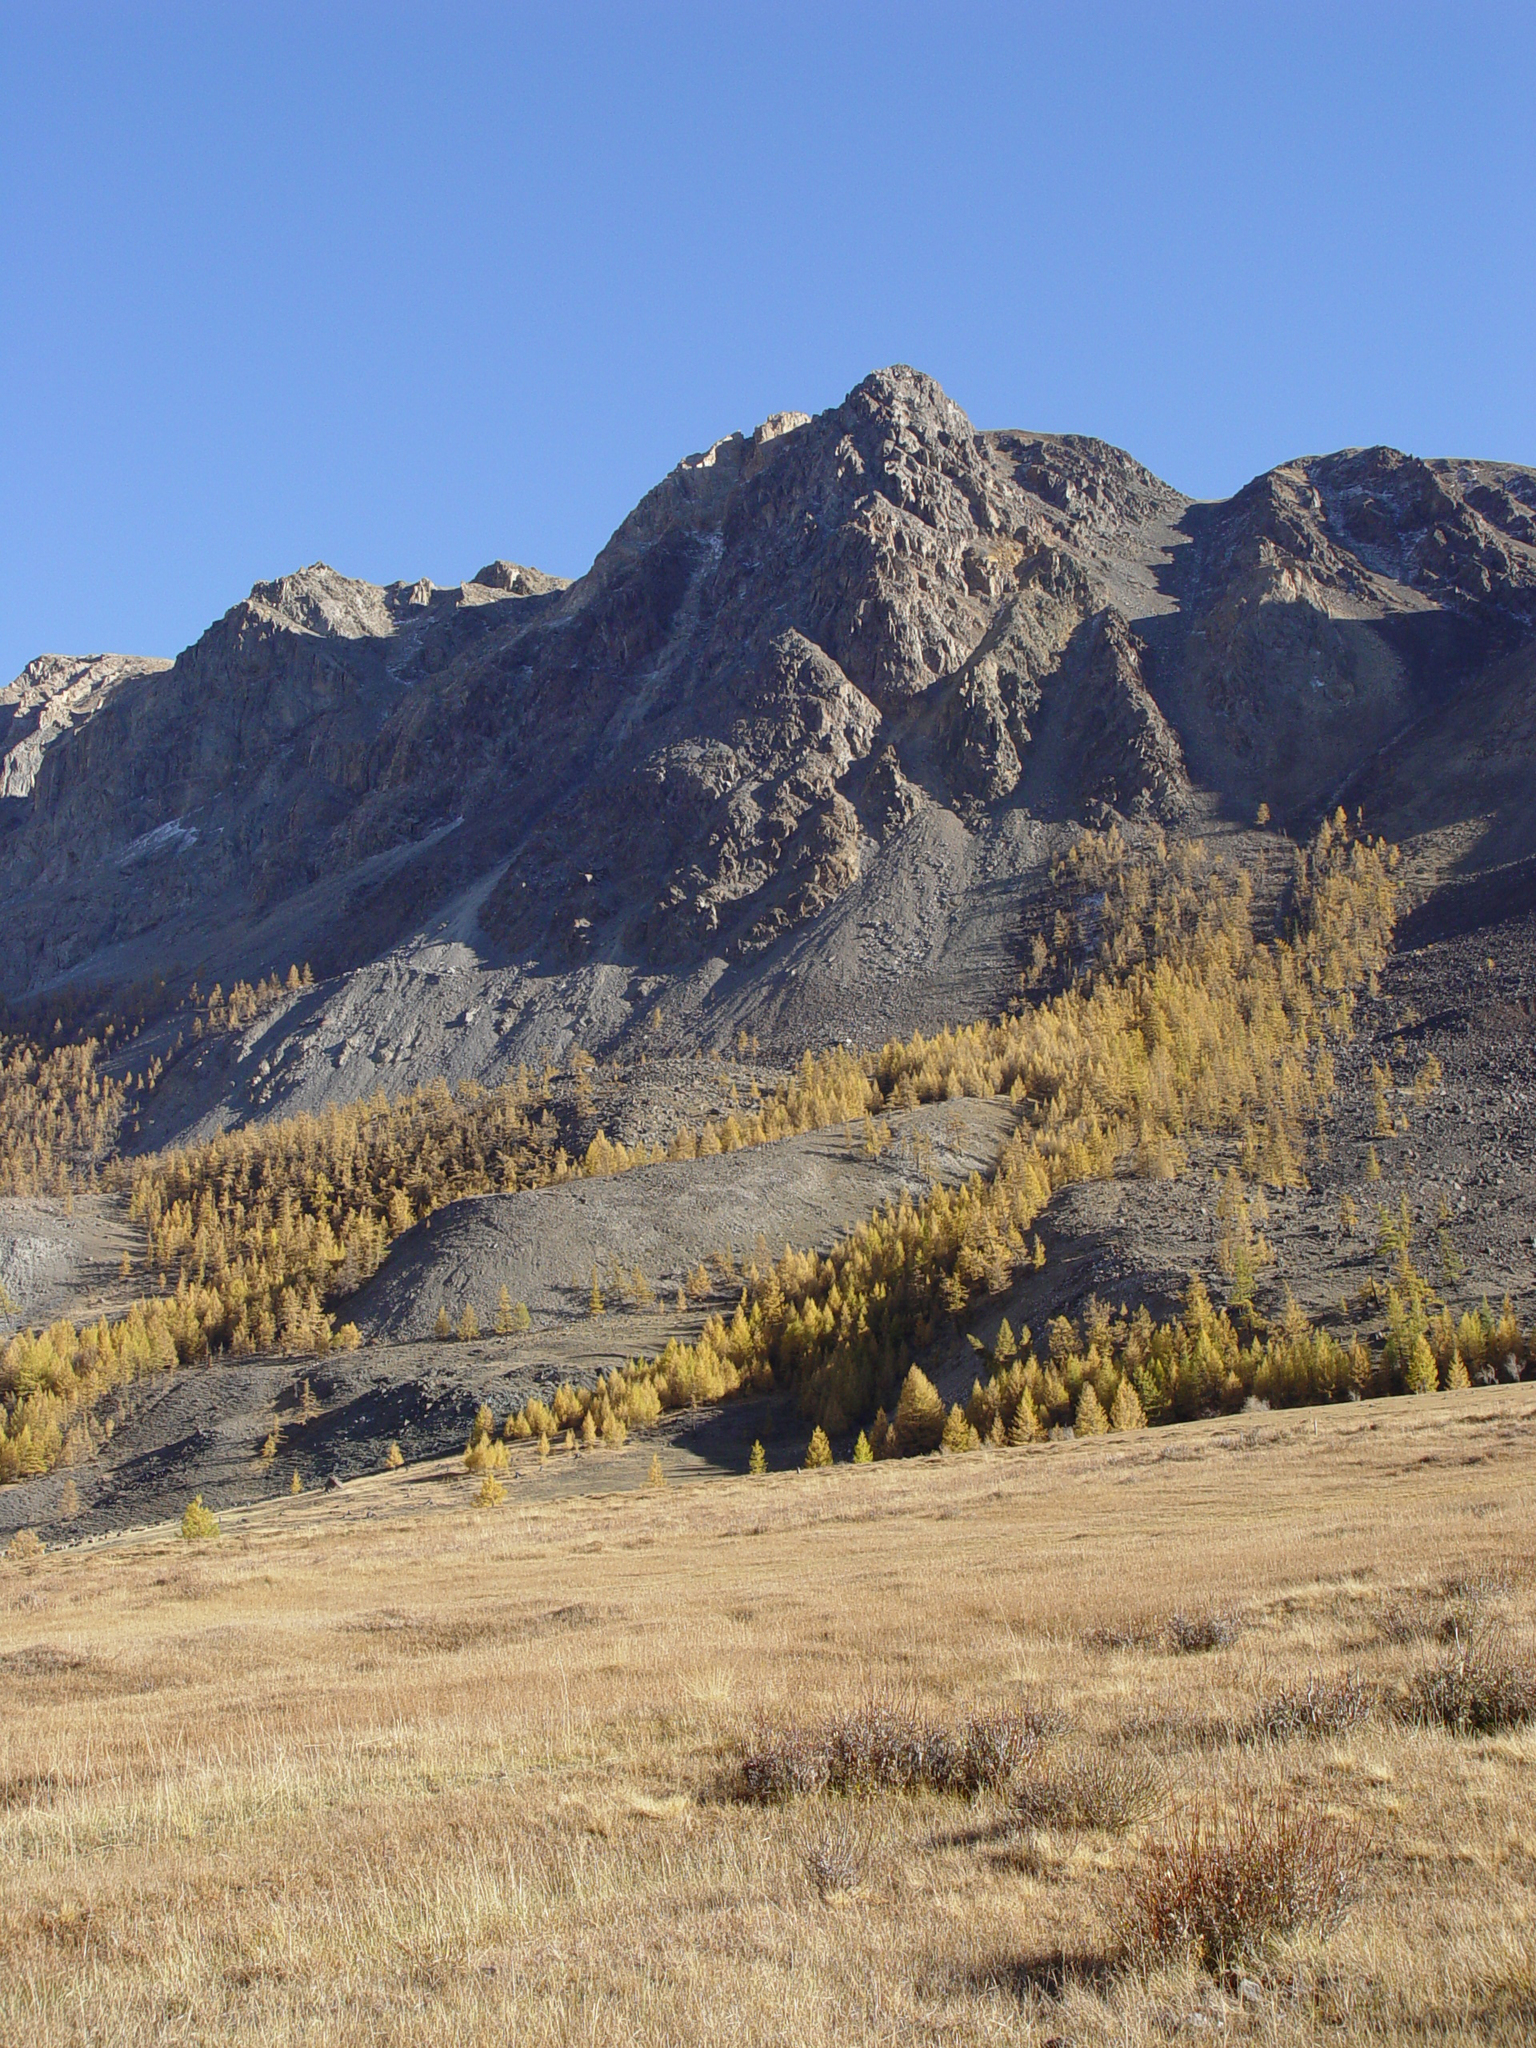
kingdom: Plantae
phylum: Tracheophyta
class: Pinopsida
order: Pinales
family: Pinaceae
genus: Larix
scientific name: Larix sibirica
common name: Siberian larch
